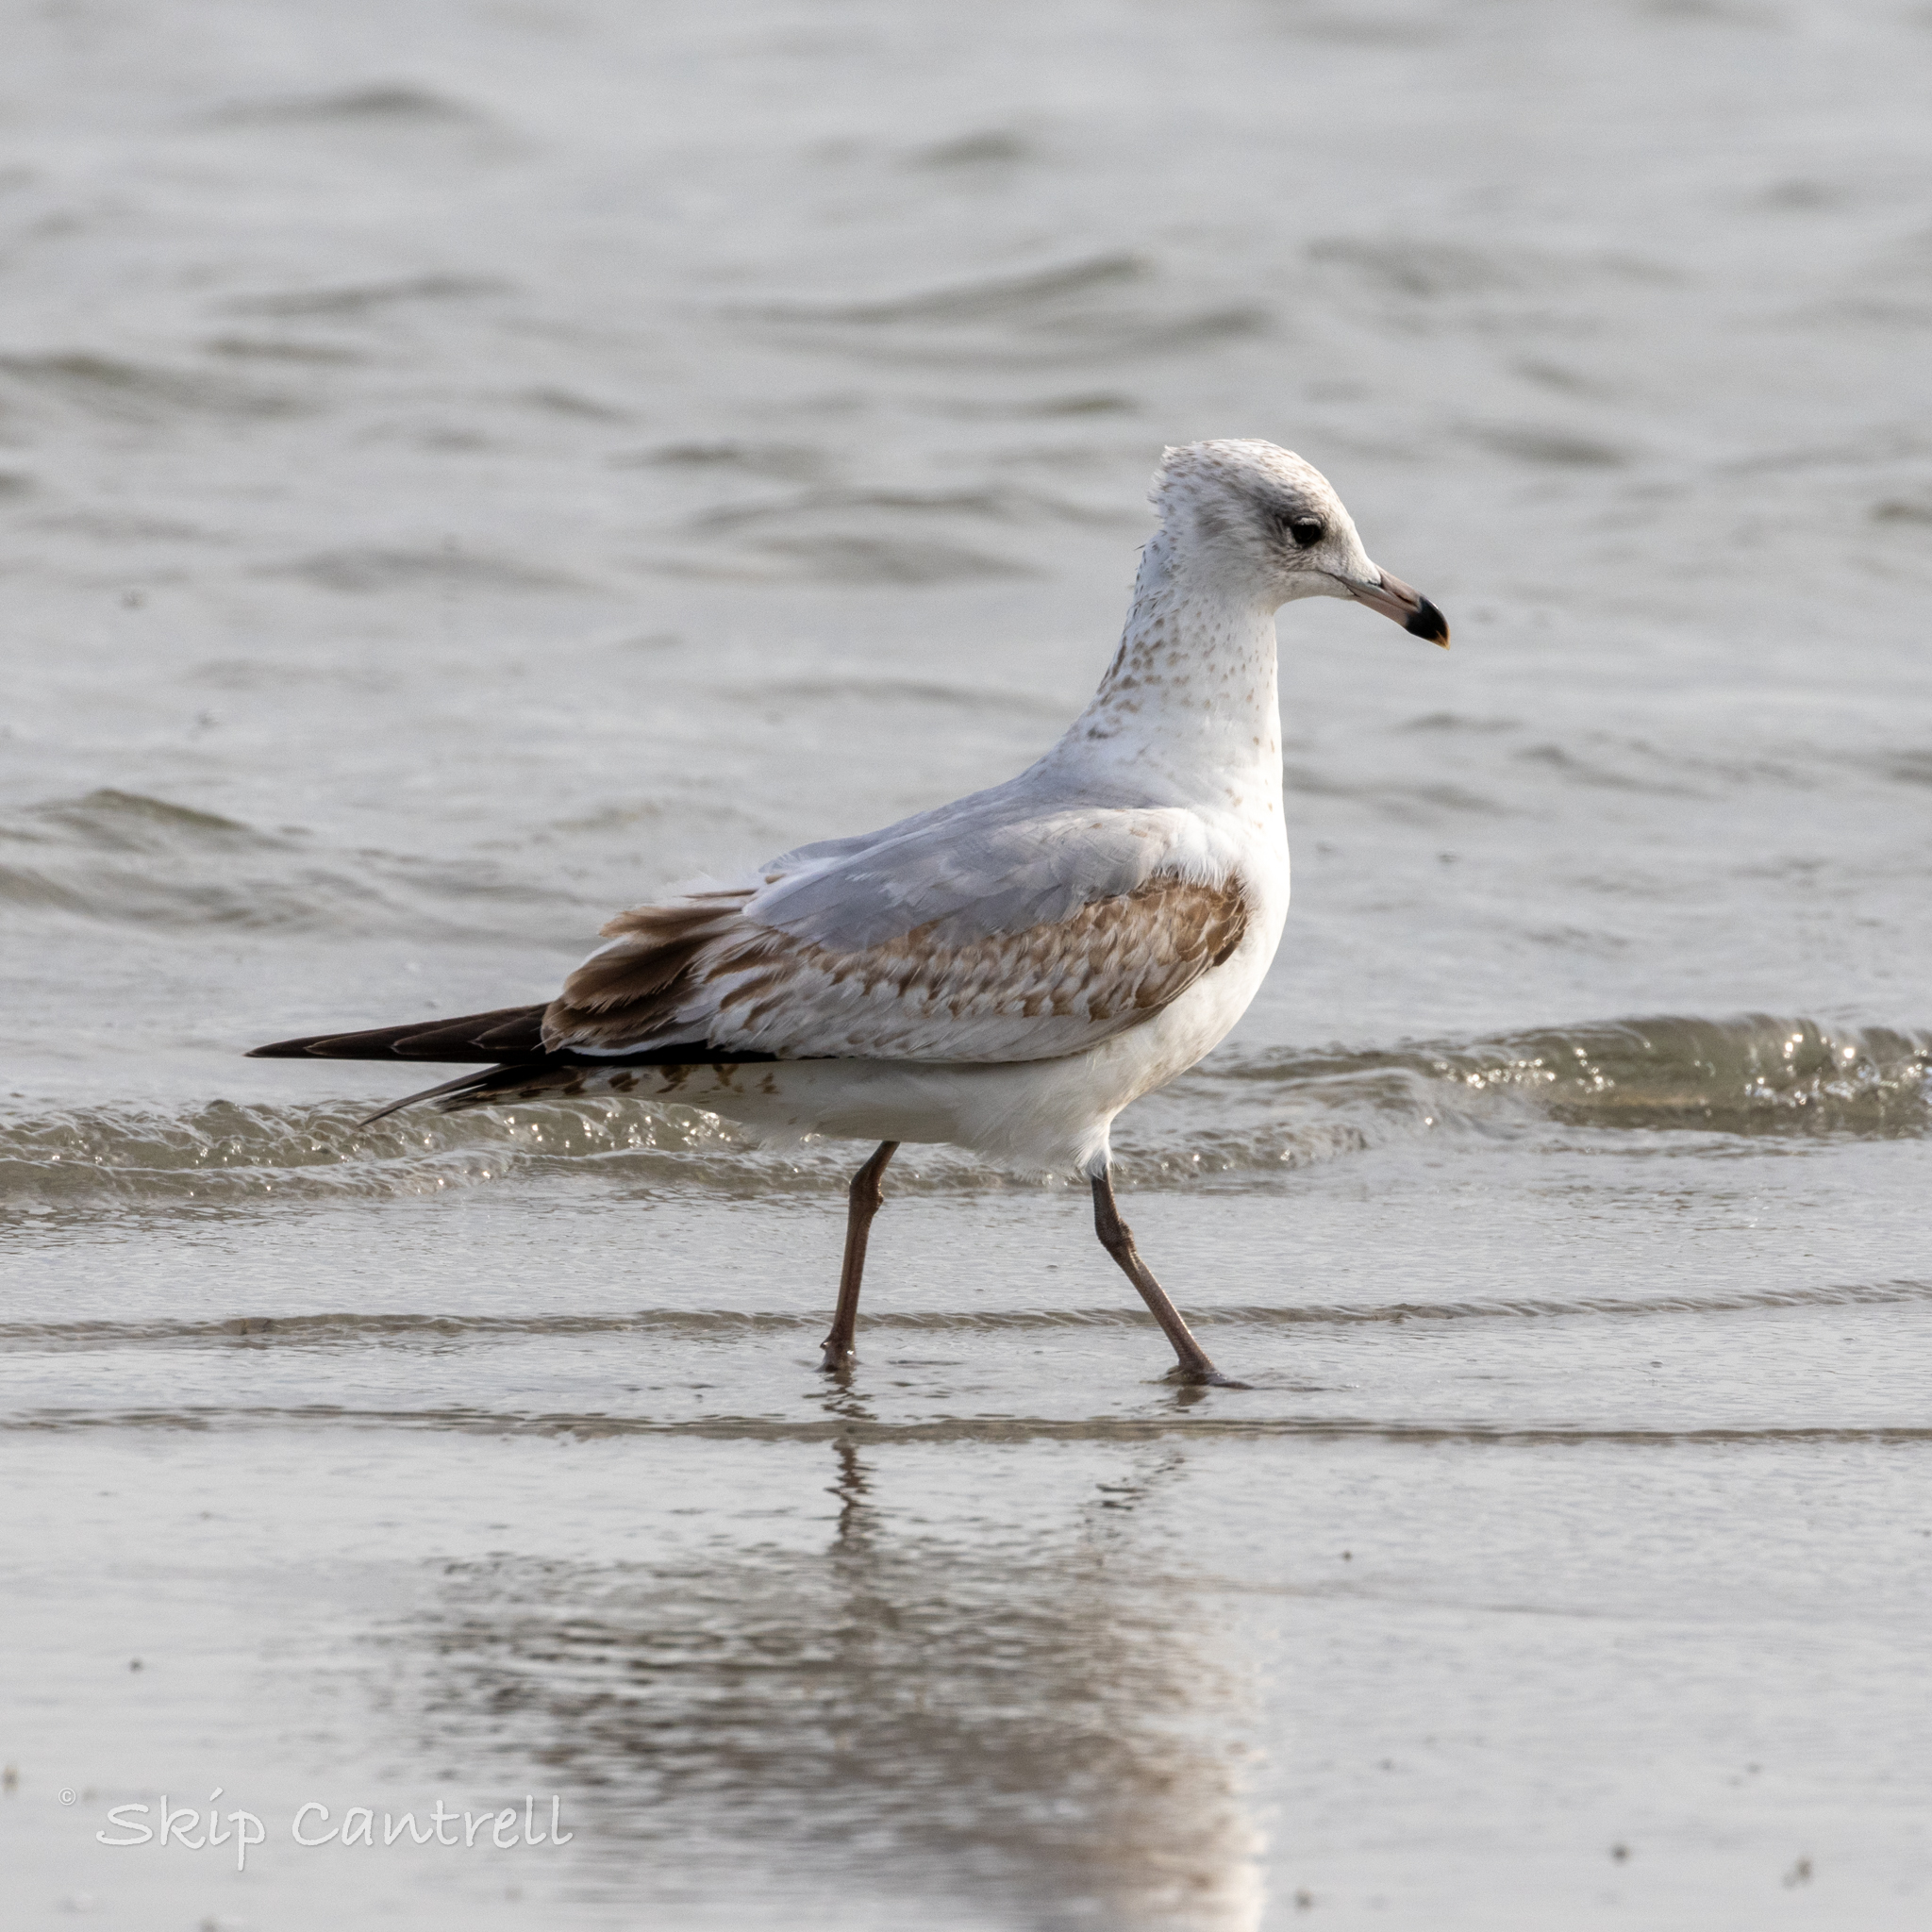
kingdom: Animalia
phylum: Chordata
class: Aves
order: Charadriiformes
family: Laridae
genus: Larus
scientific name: Larus delawarensis
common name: Ring-billed gull
